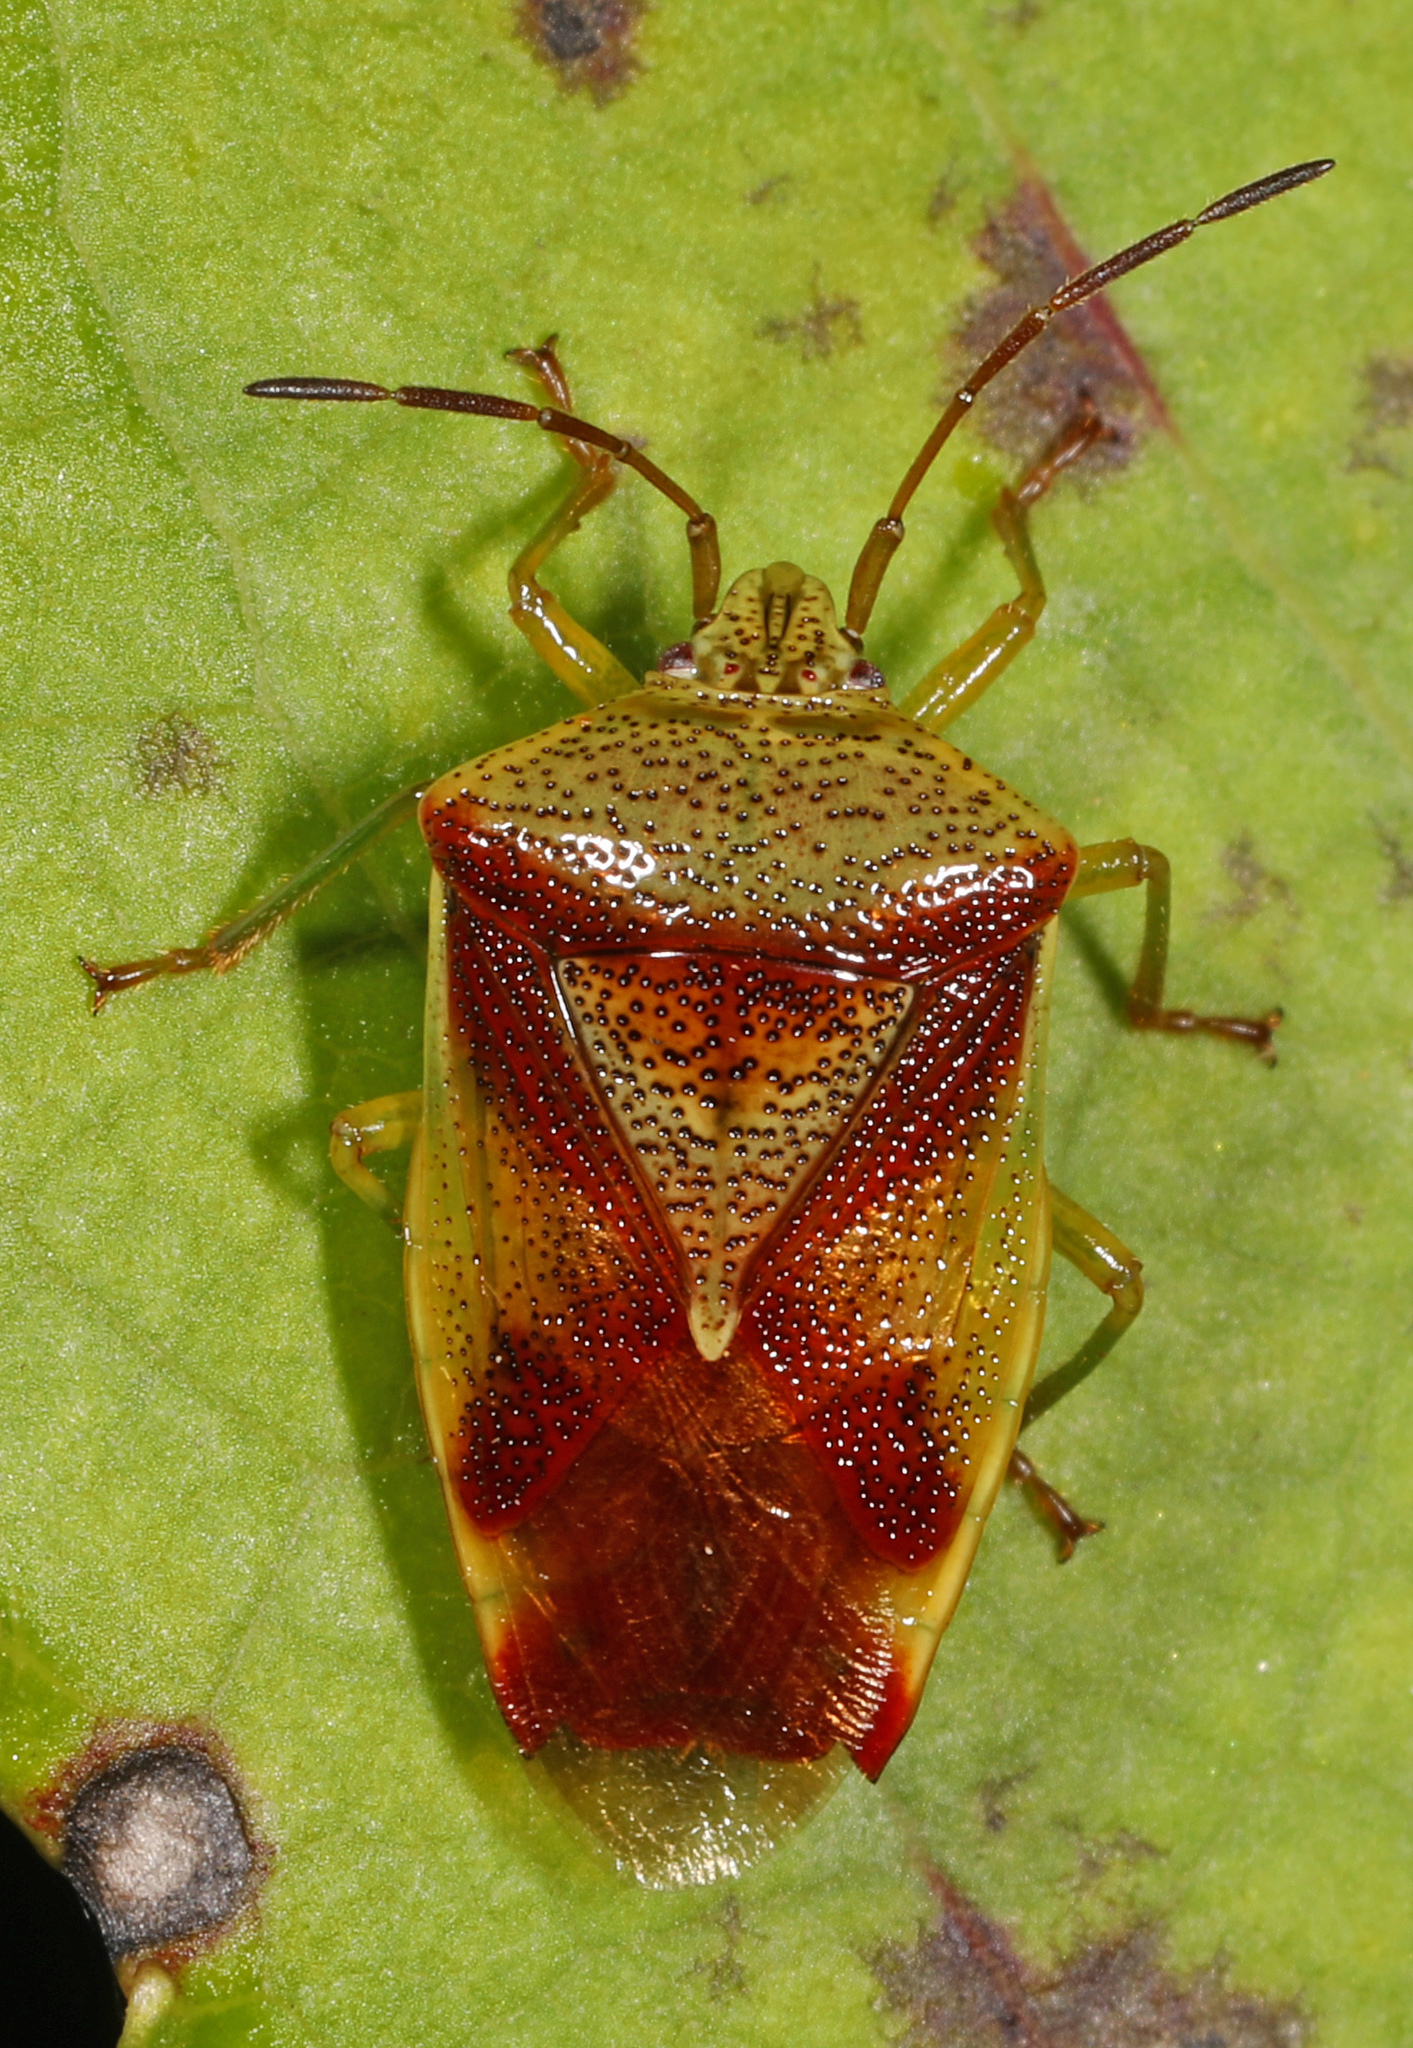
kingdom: Animalia
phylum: Arthropoda
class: Insecta
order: Hemiptera
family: Acanthosomatidae
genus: Elasmostethus
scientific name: Elasmostethus cruciatus
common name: Red-cross shield bug
